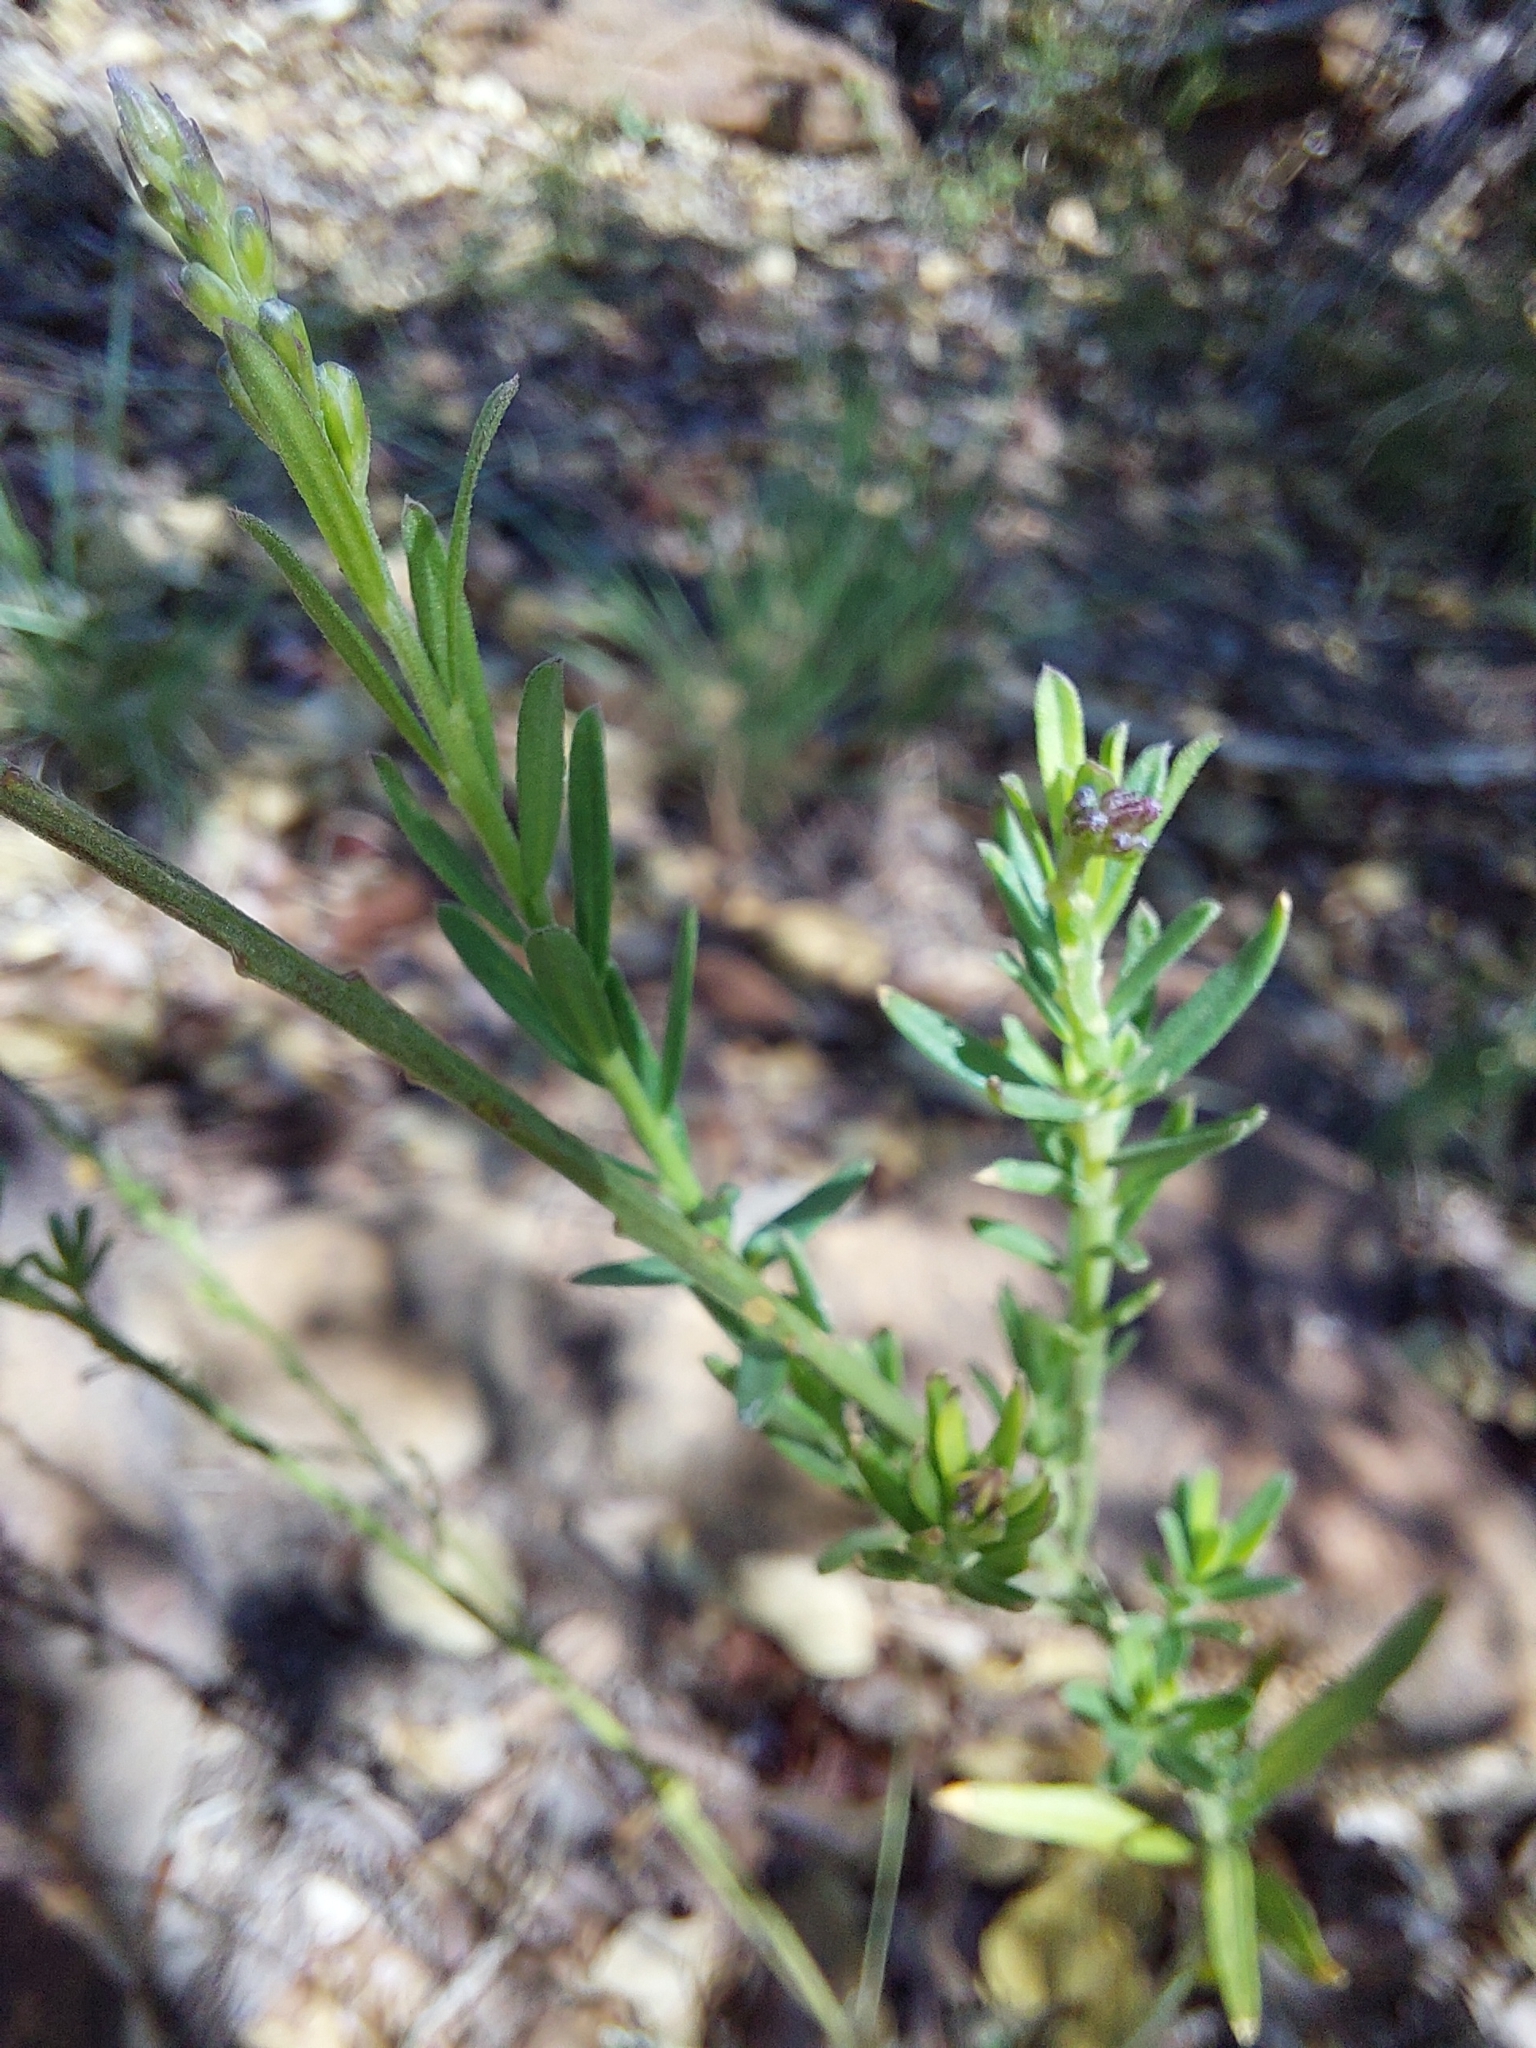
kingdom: Plantae
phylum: Tracheophyta
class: Magnoliopsida
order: Fabales
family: Polygalaceae
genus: Polygala
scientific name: Polygala uncinata
